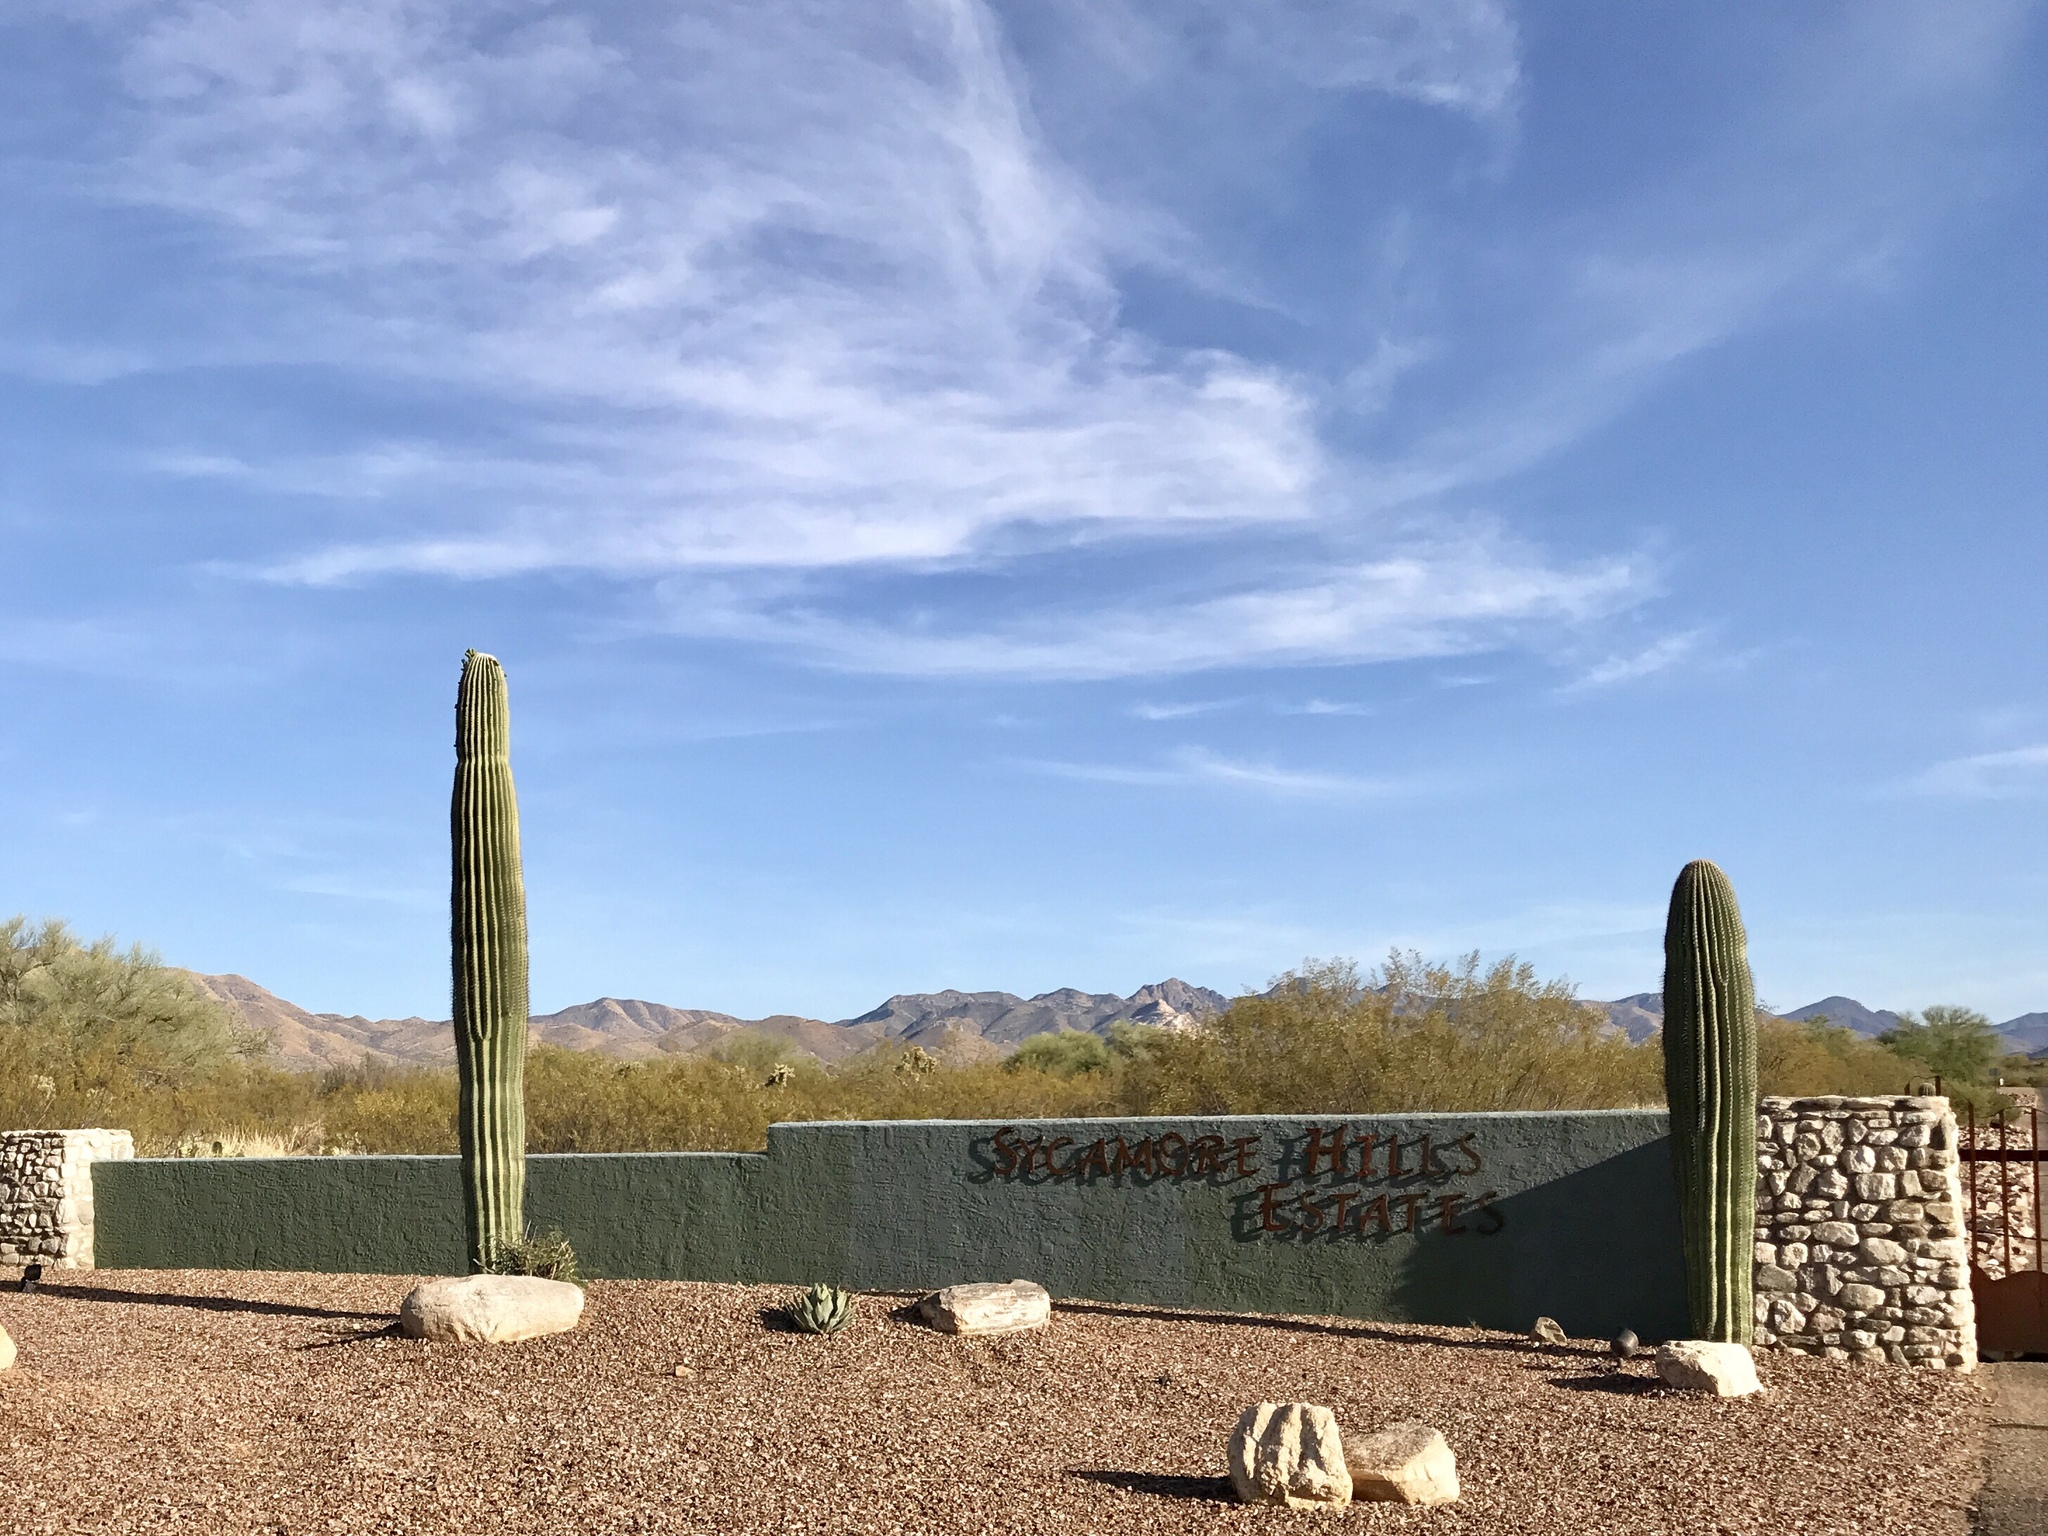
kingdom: Plantae
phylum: Tracheophyta
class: Magnoliopsida
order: Caryophyllales
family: Cactaceae
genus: Carnegiea
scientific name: Carnegiea gigantea
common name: Saguaro
